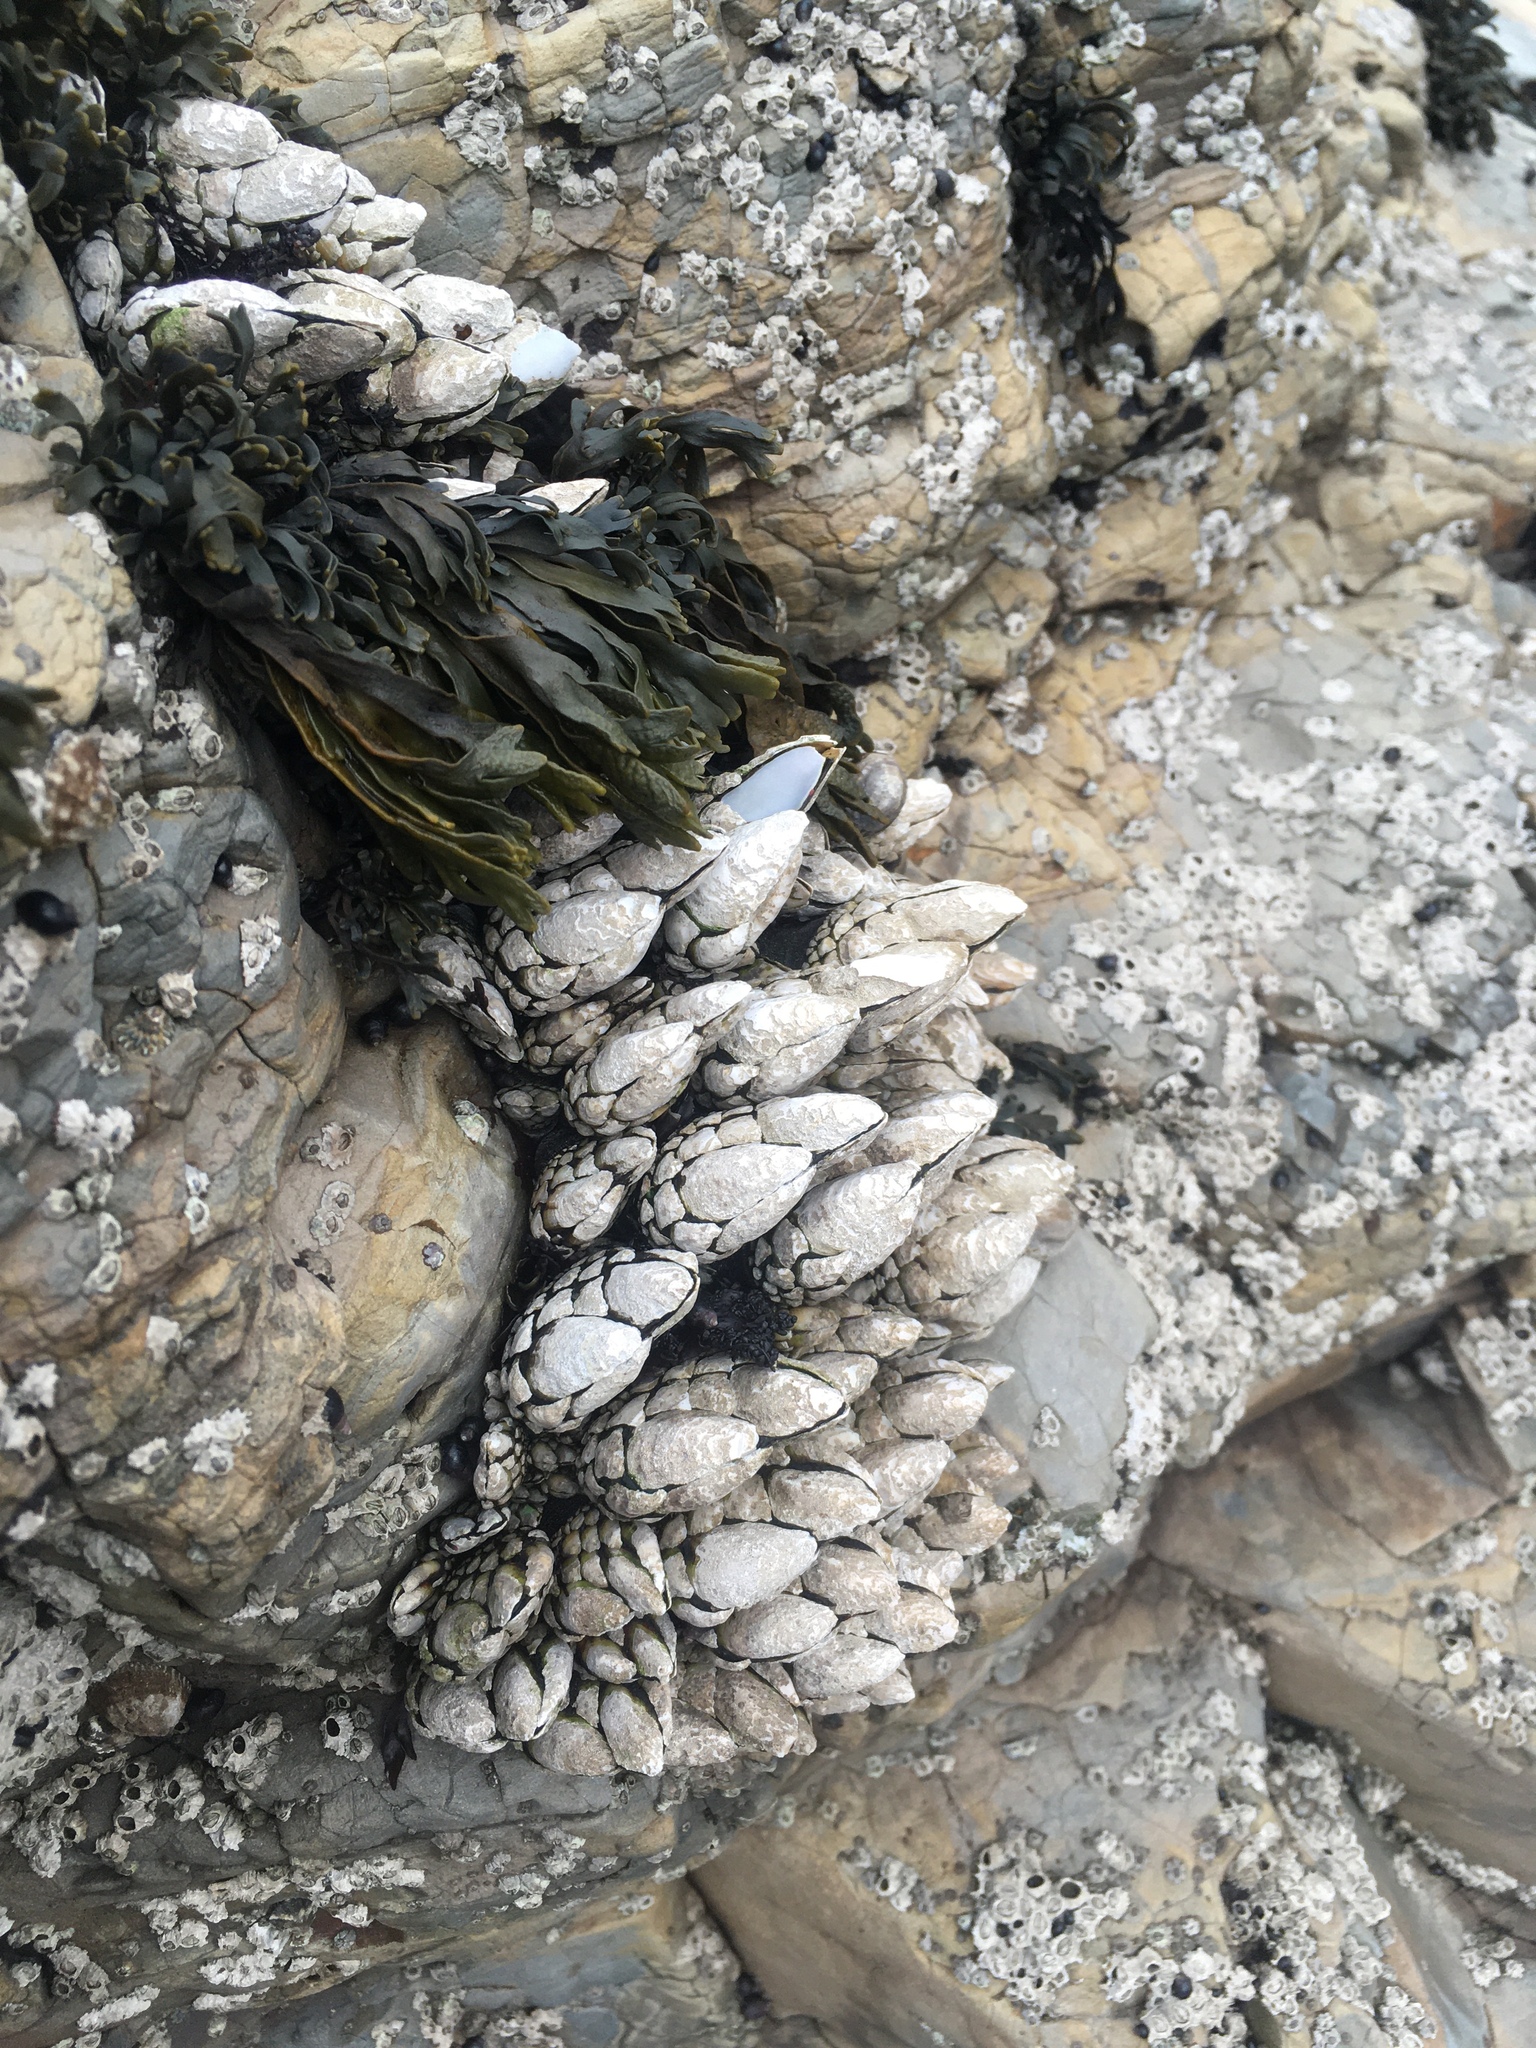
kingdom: Animalia
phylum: Arthropoda
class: Maxillopoda
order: Pedunculata
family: Pollicipedidae
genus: Pollicipes
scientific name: Pollicipes polymerus
